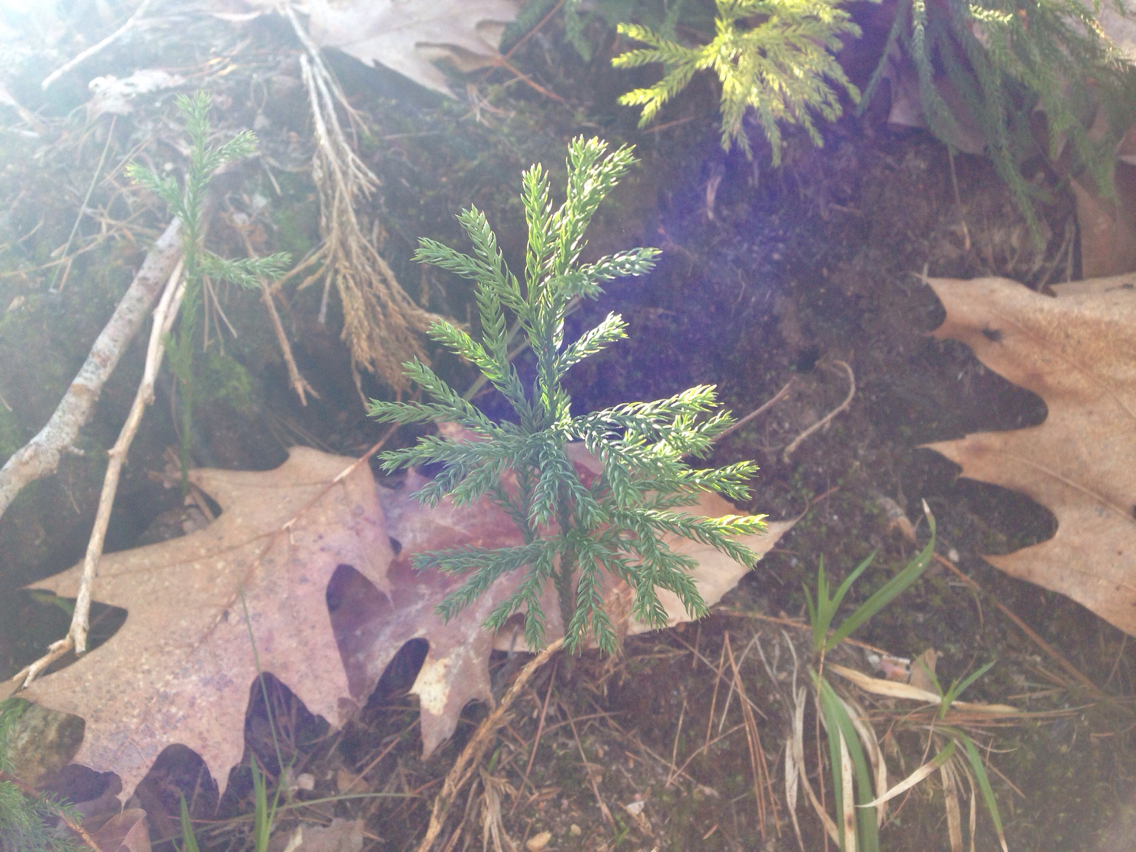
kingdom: Plantae
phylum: Tracheophyta
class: Lycopodiopsida
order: Lycopodiales
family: Lycopodiaceae
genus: Dendrolycopodium
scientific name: Dendrolycopodium hickeyi
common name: Hickey's clubmoss
